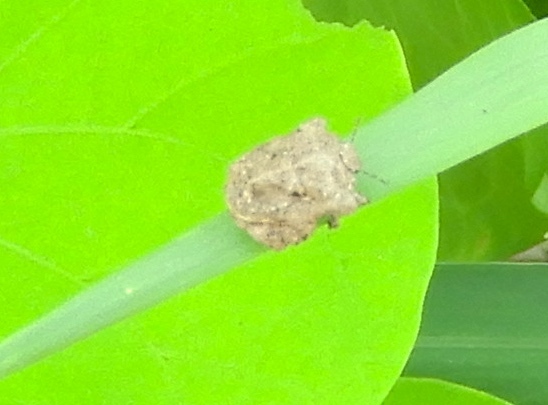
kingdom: Animalia
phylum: Arthropoda
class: Insecta
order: Hemiptera
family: Pentatomidae
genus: Cyrtocoris
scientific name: Cyrtocoris
